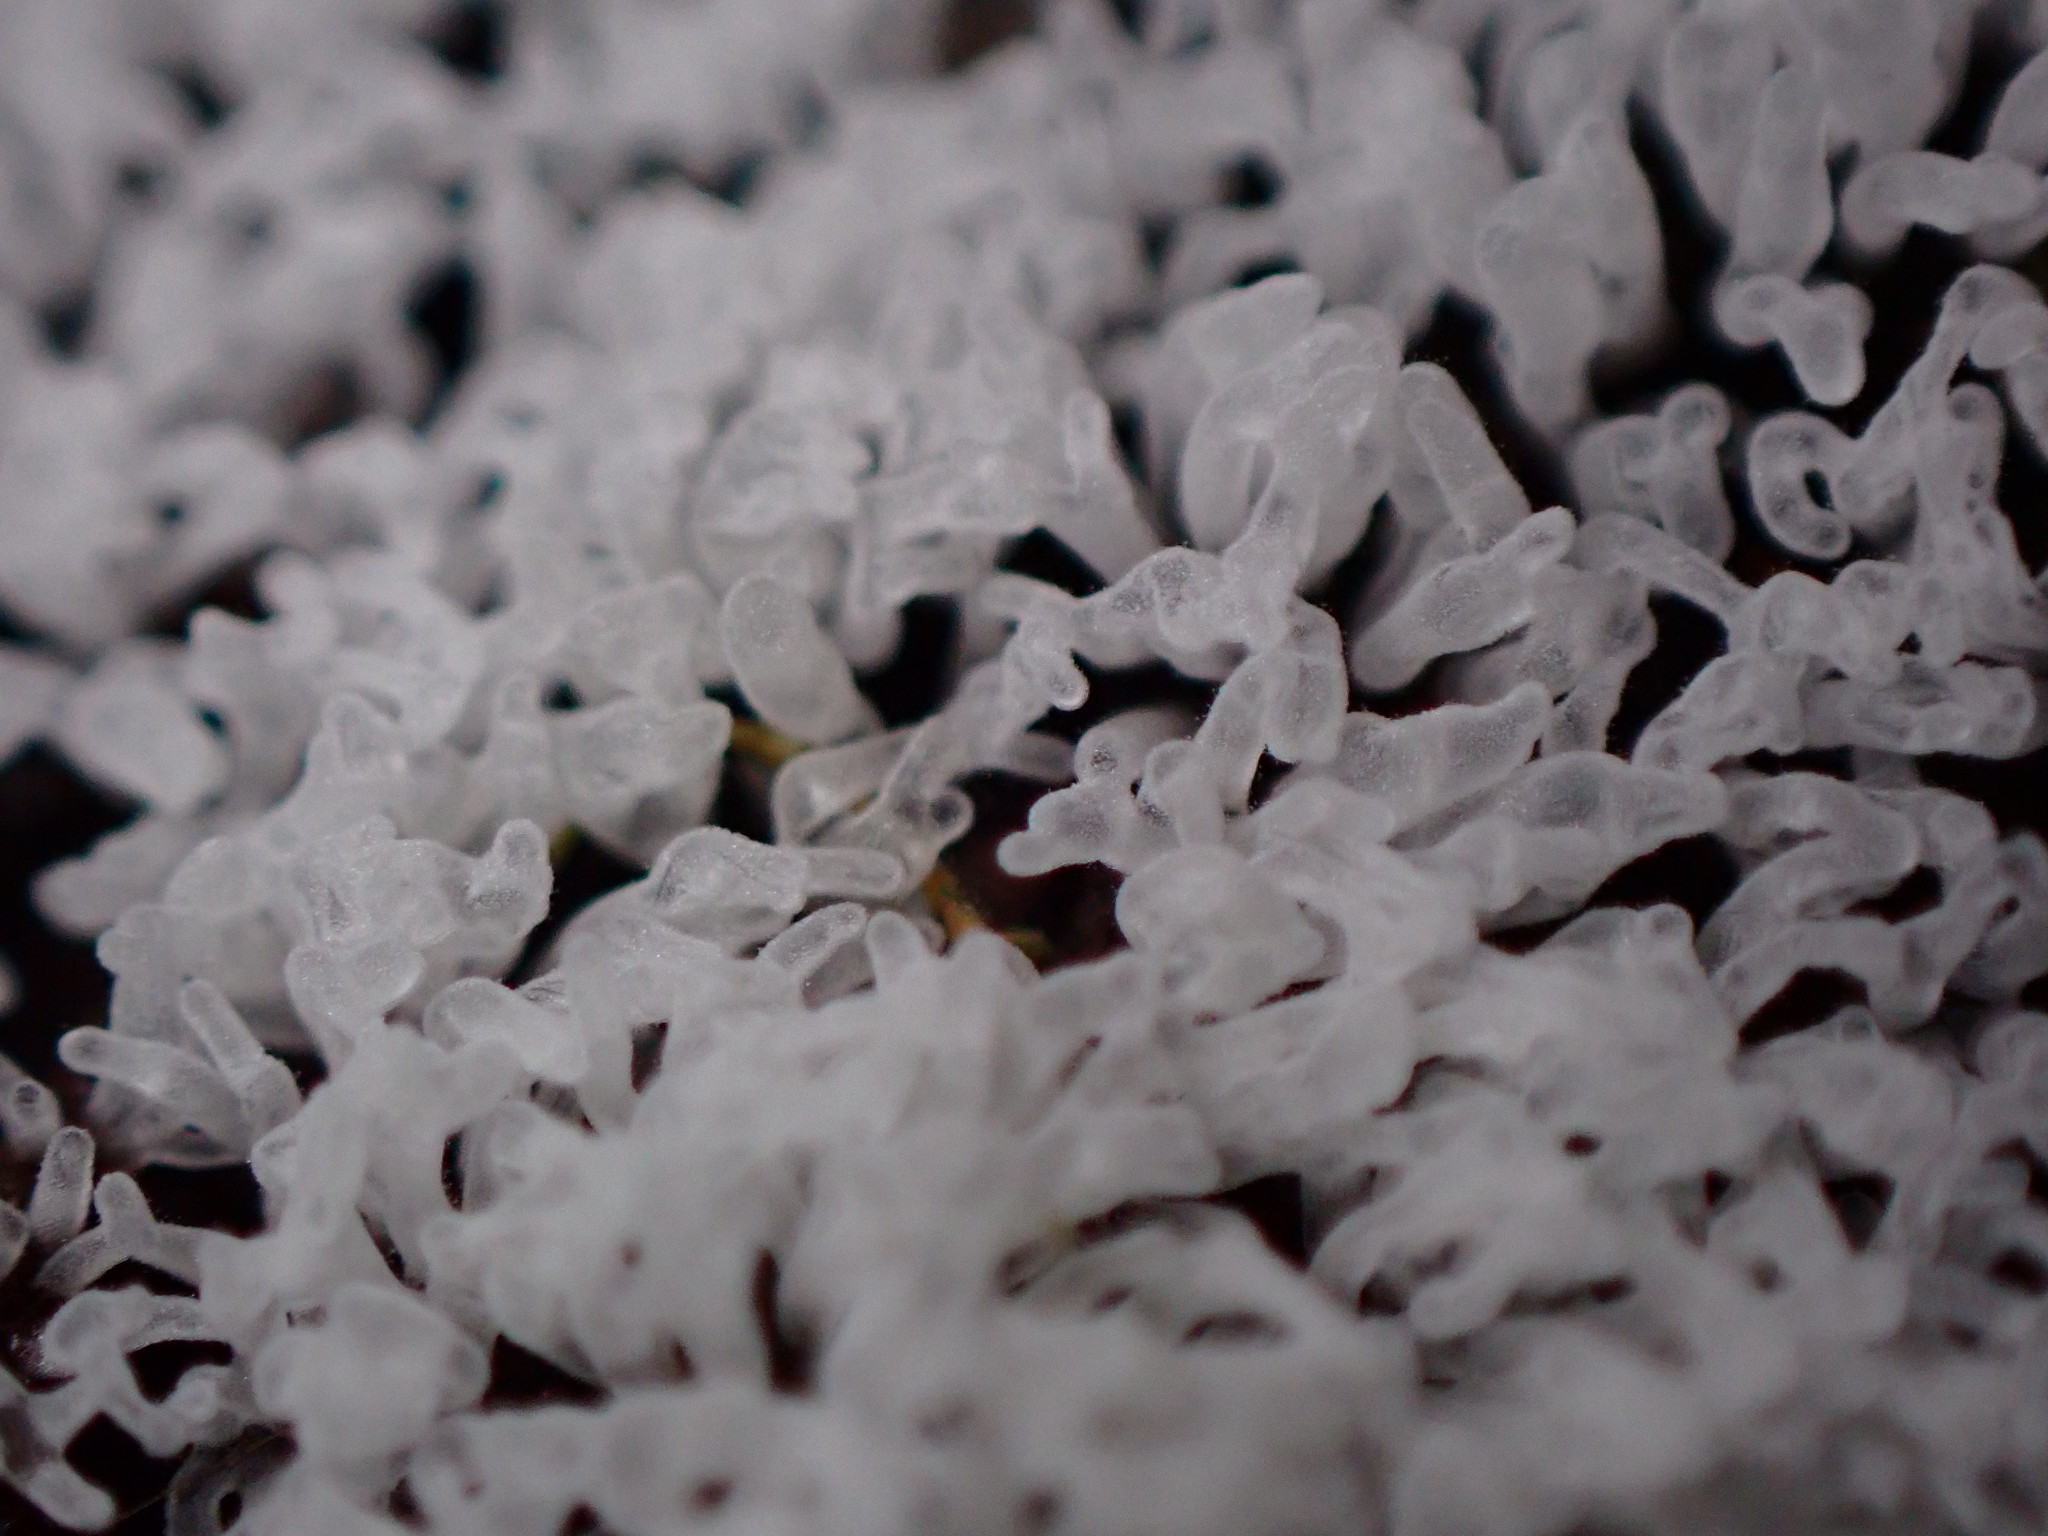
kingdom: Protozoa
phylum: Mycetozoa
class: Protosteliomycetes
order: Ceratiomyxales
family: Ceratiomyxaceae
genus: Ceratiomyxa
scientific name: Ceratiomyxa fruticulosa
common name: Honeycomb coral slime mold
